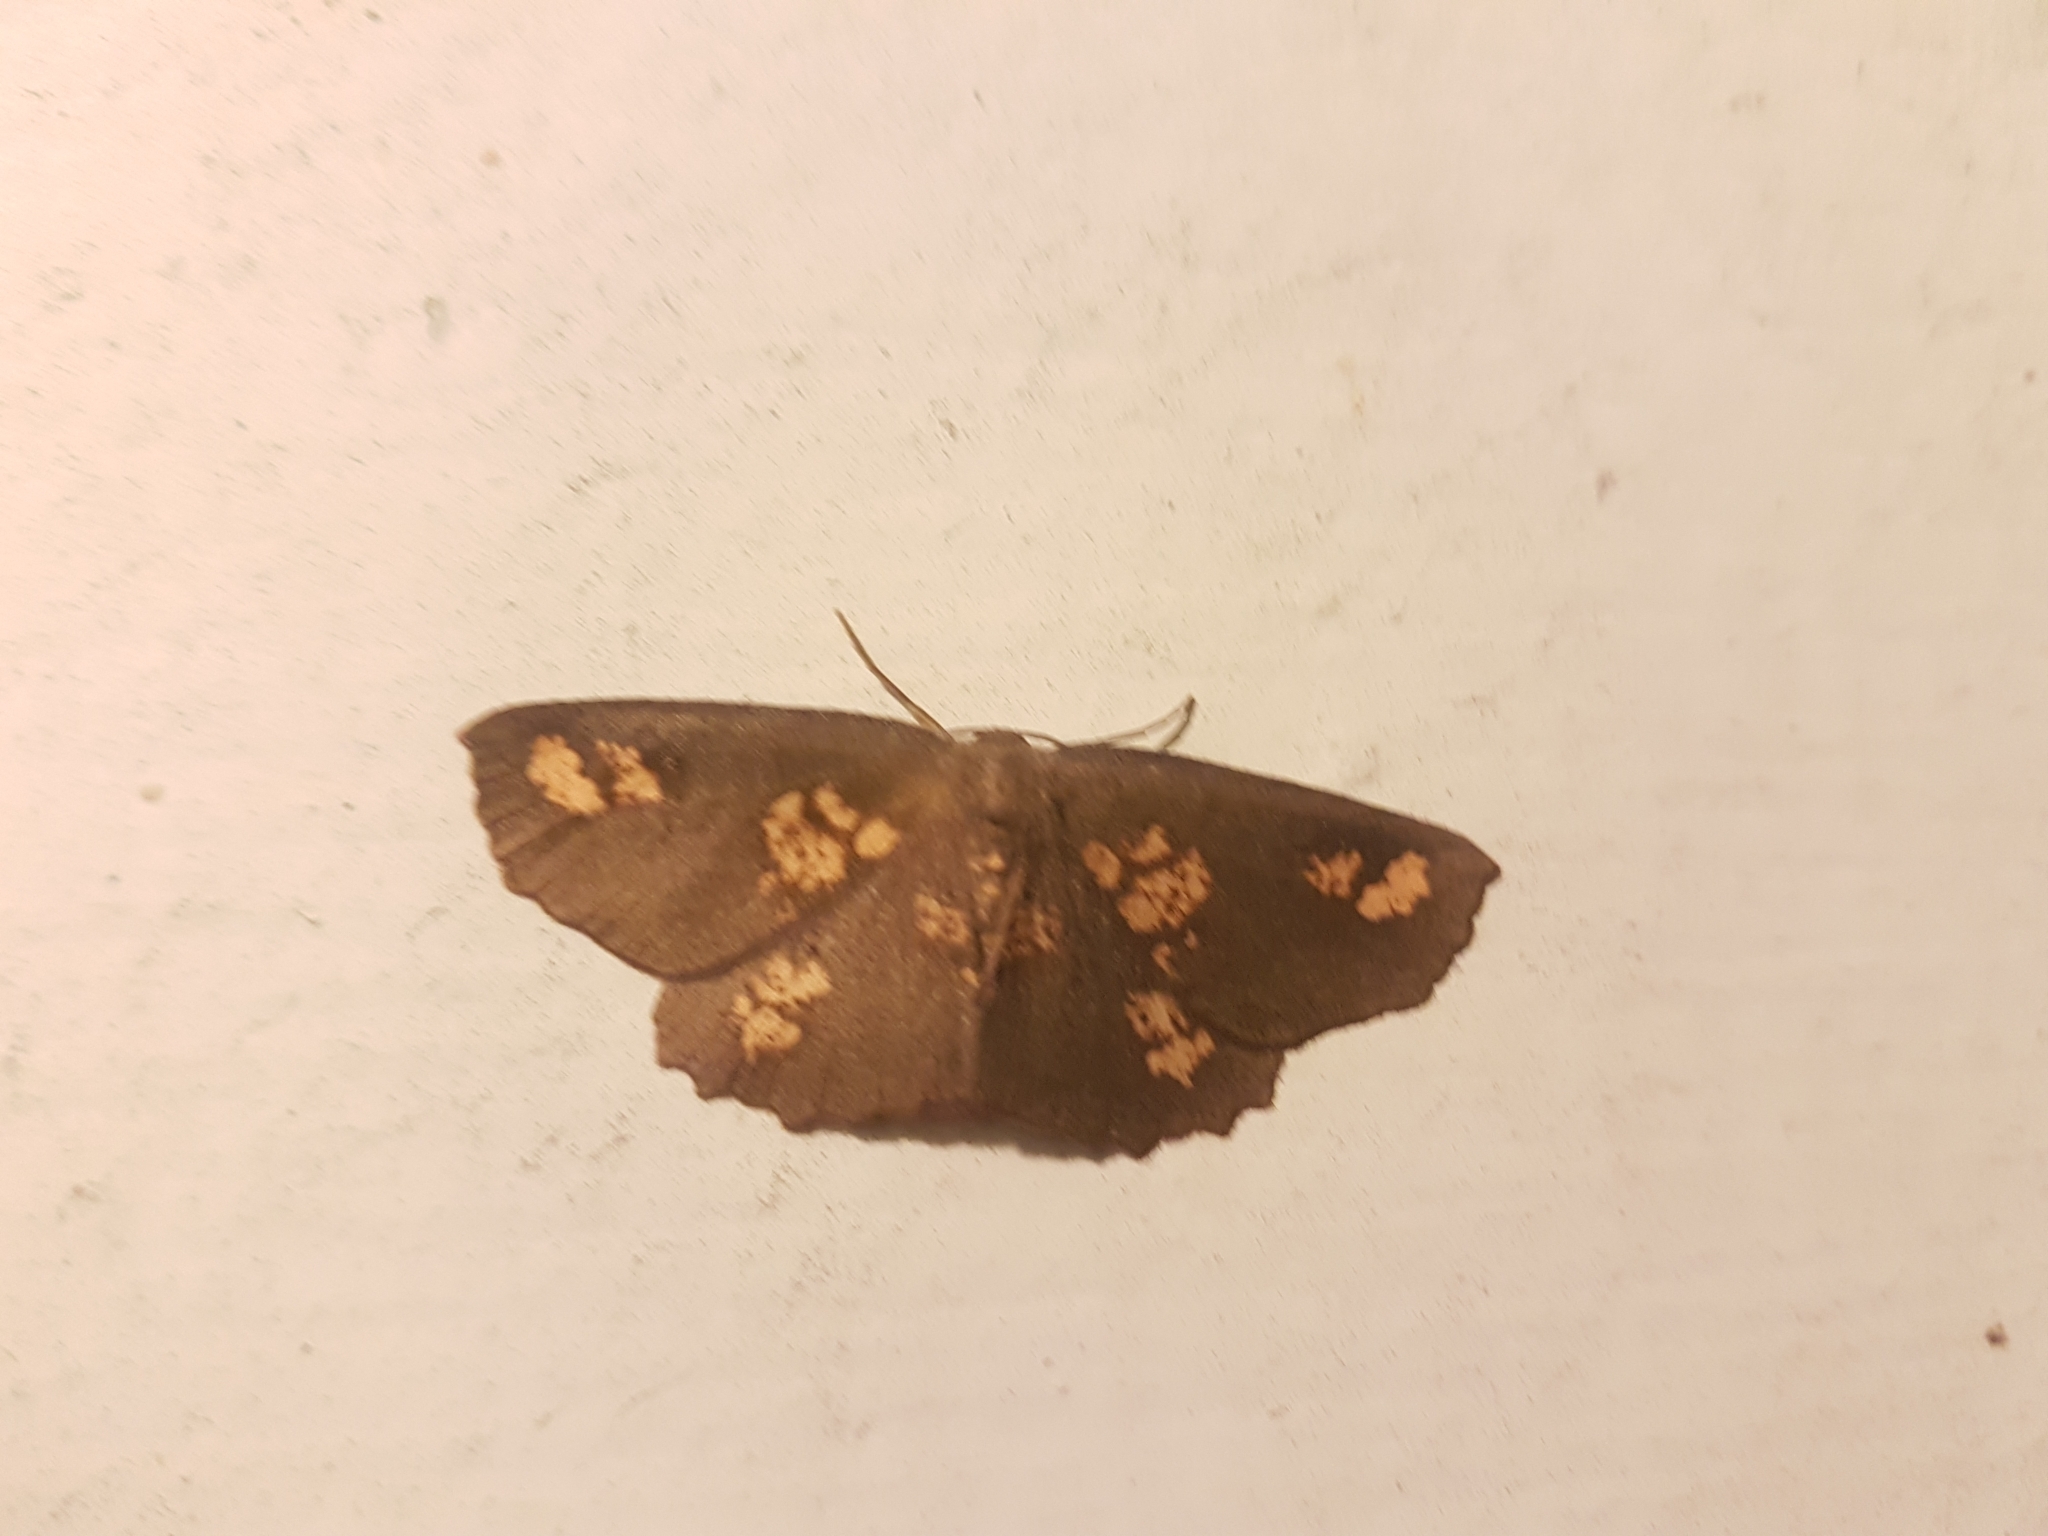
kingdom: Animalia
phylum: Arthropoda
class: Insecta
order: Lepidoptera
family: Geometridae
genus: Xyridacma
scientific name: Xyridacma ustaria
